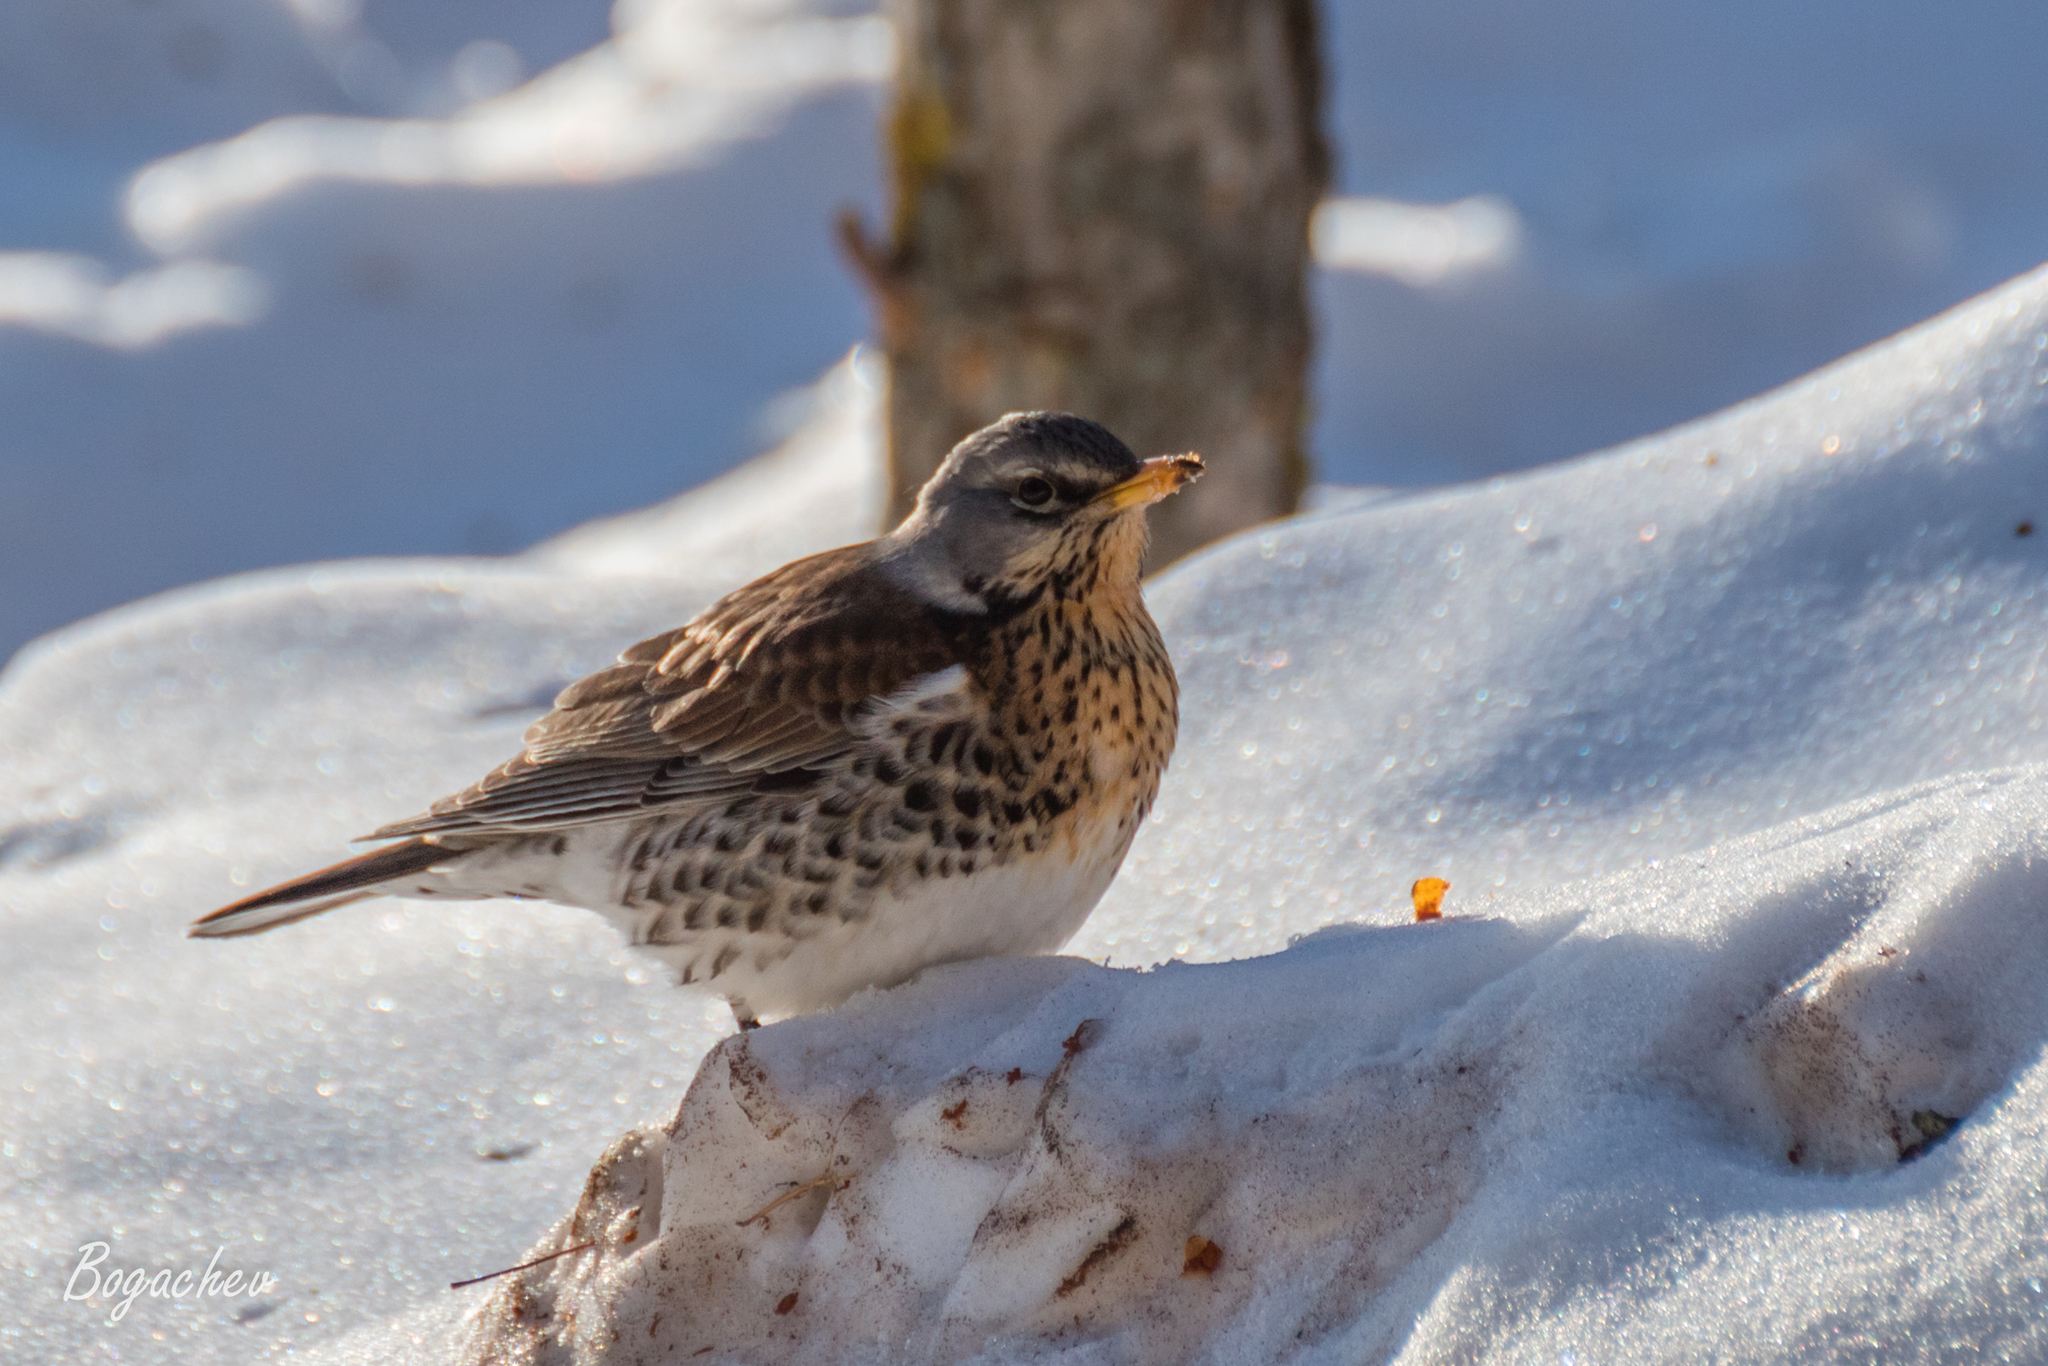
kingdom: Animalia
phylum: Chordata
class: Aves
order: Passeriformes
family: Turdidae
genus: Turdus
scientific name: Turdus pilaris
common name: Fieldfare
